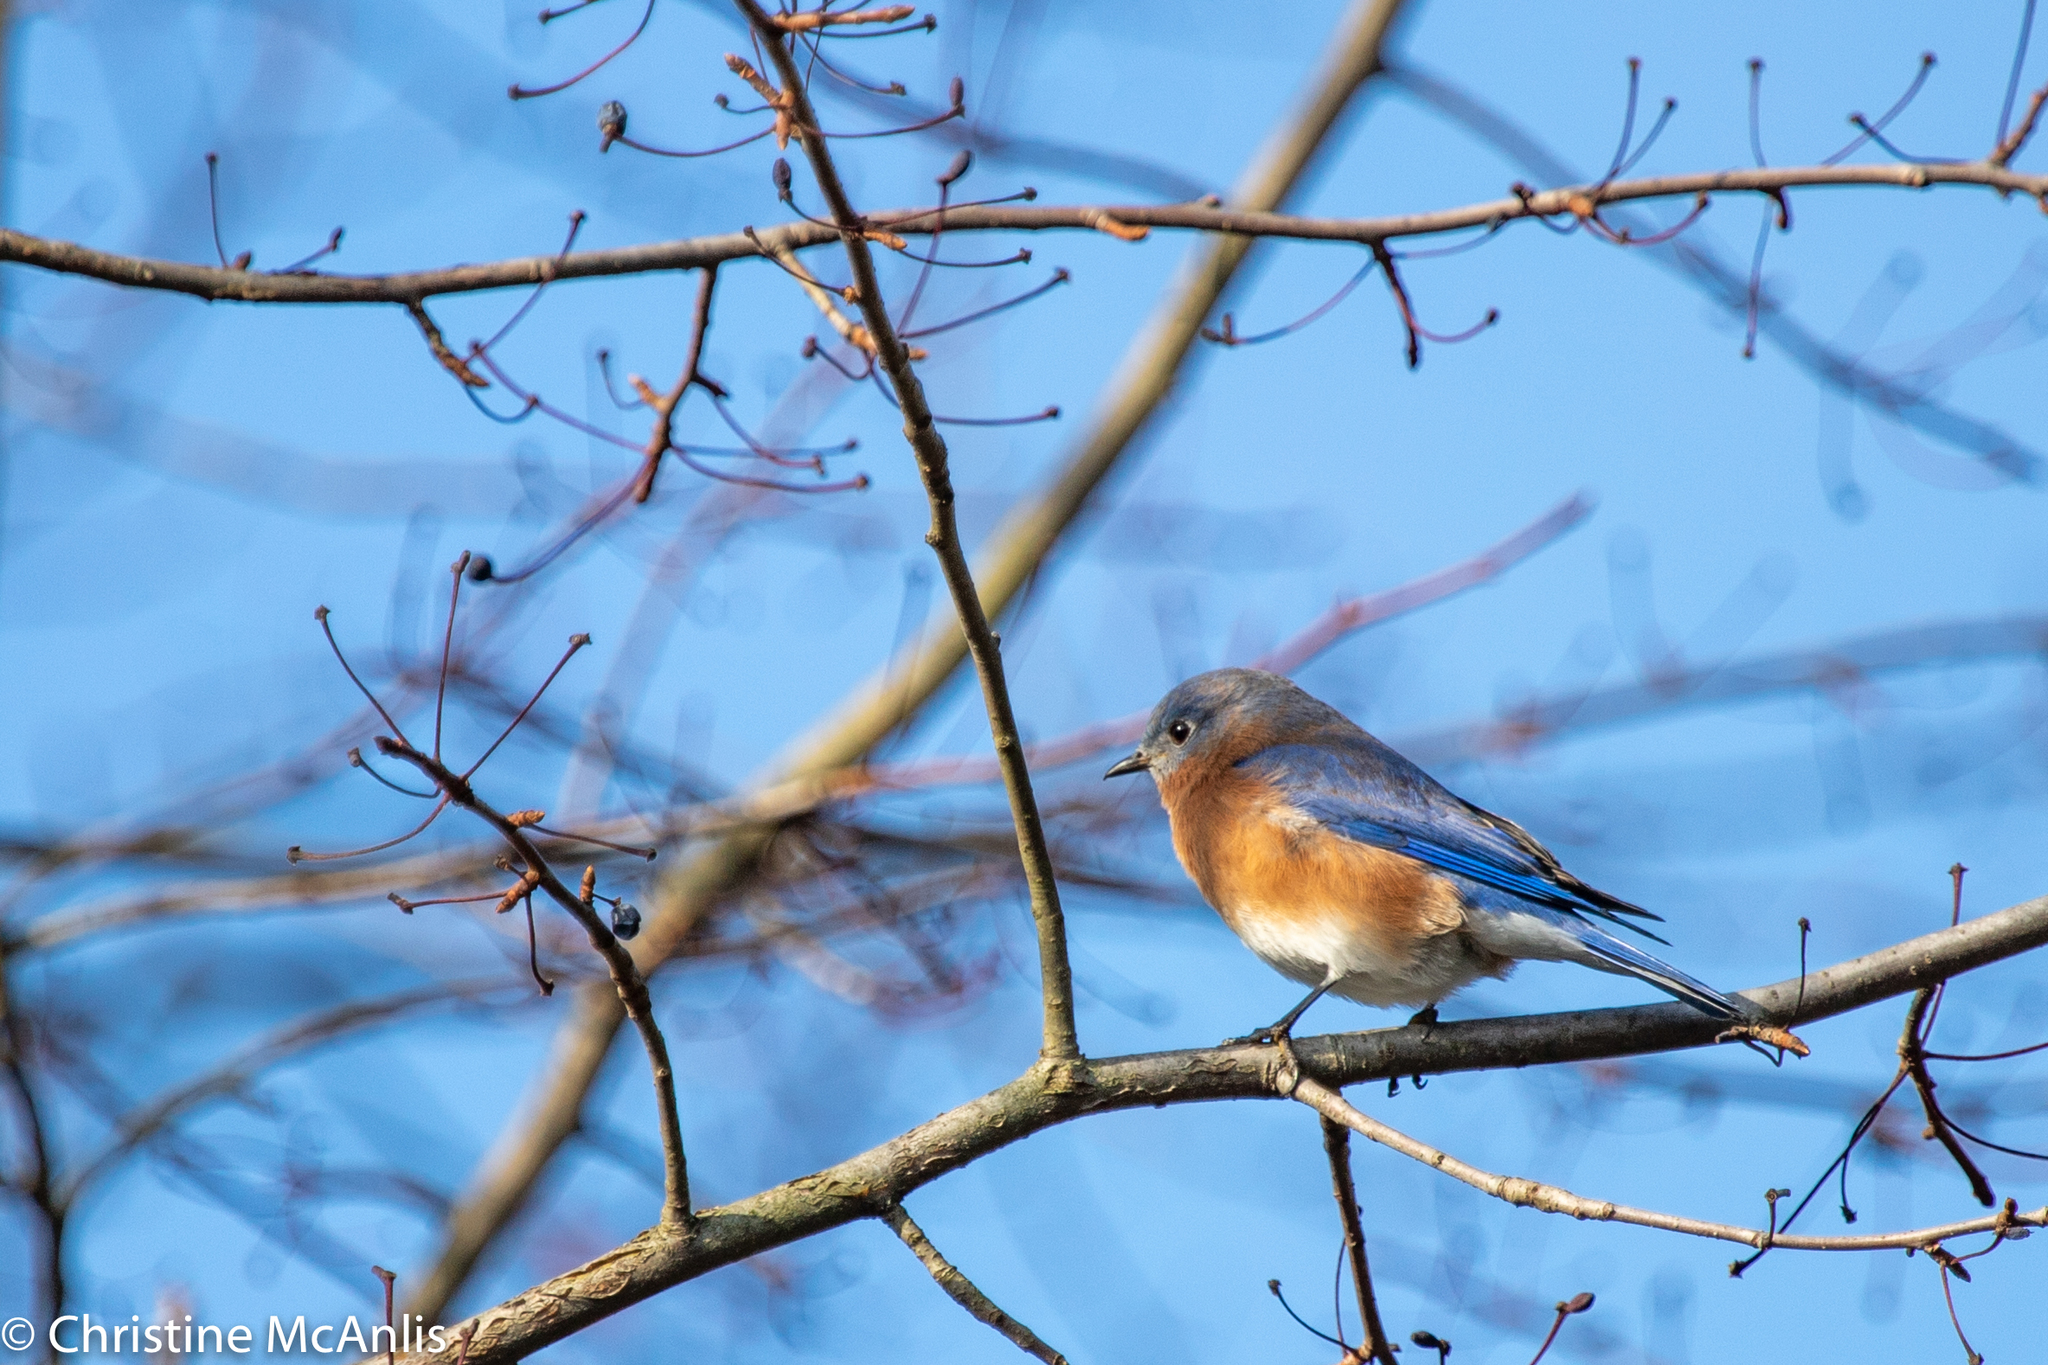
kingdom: Animalia
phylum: Chordata
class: Aves
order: Passeriformes
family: Turdidae
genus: Sialia
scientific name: Sialia sialis
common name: Eastern bluebird
